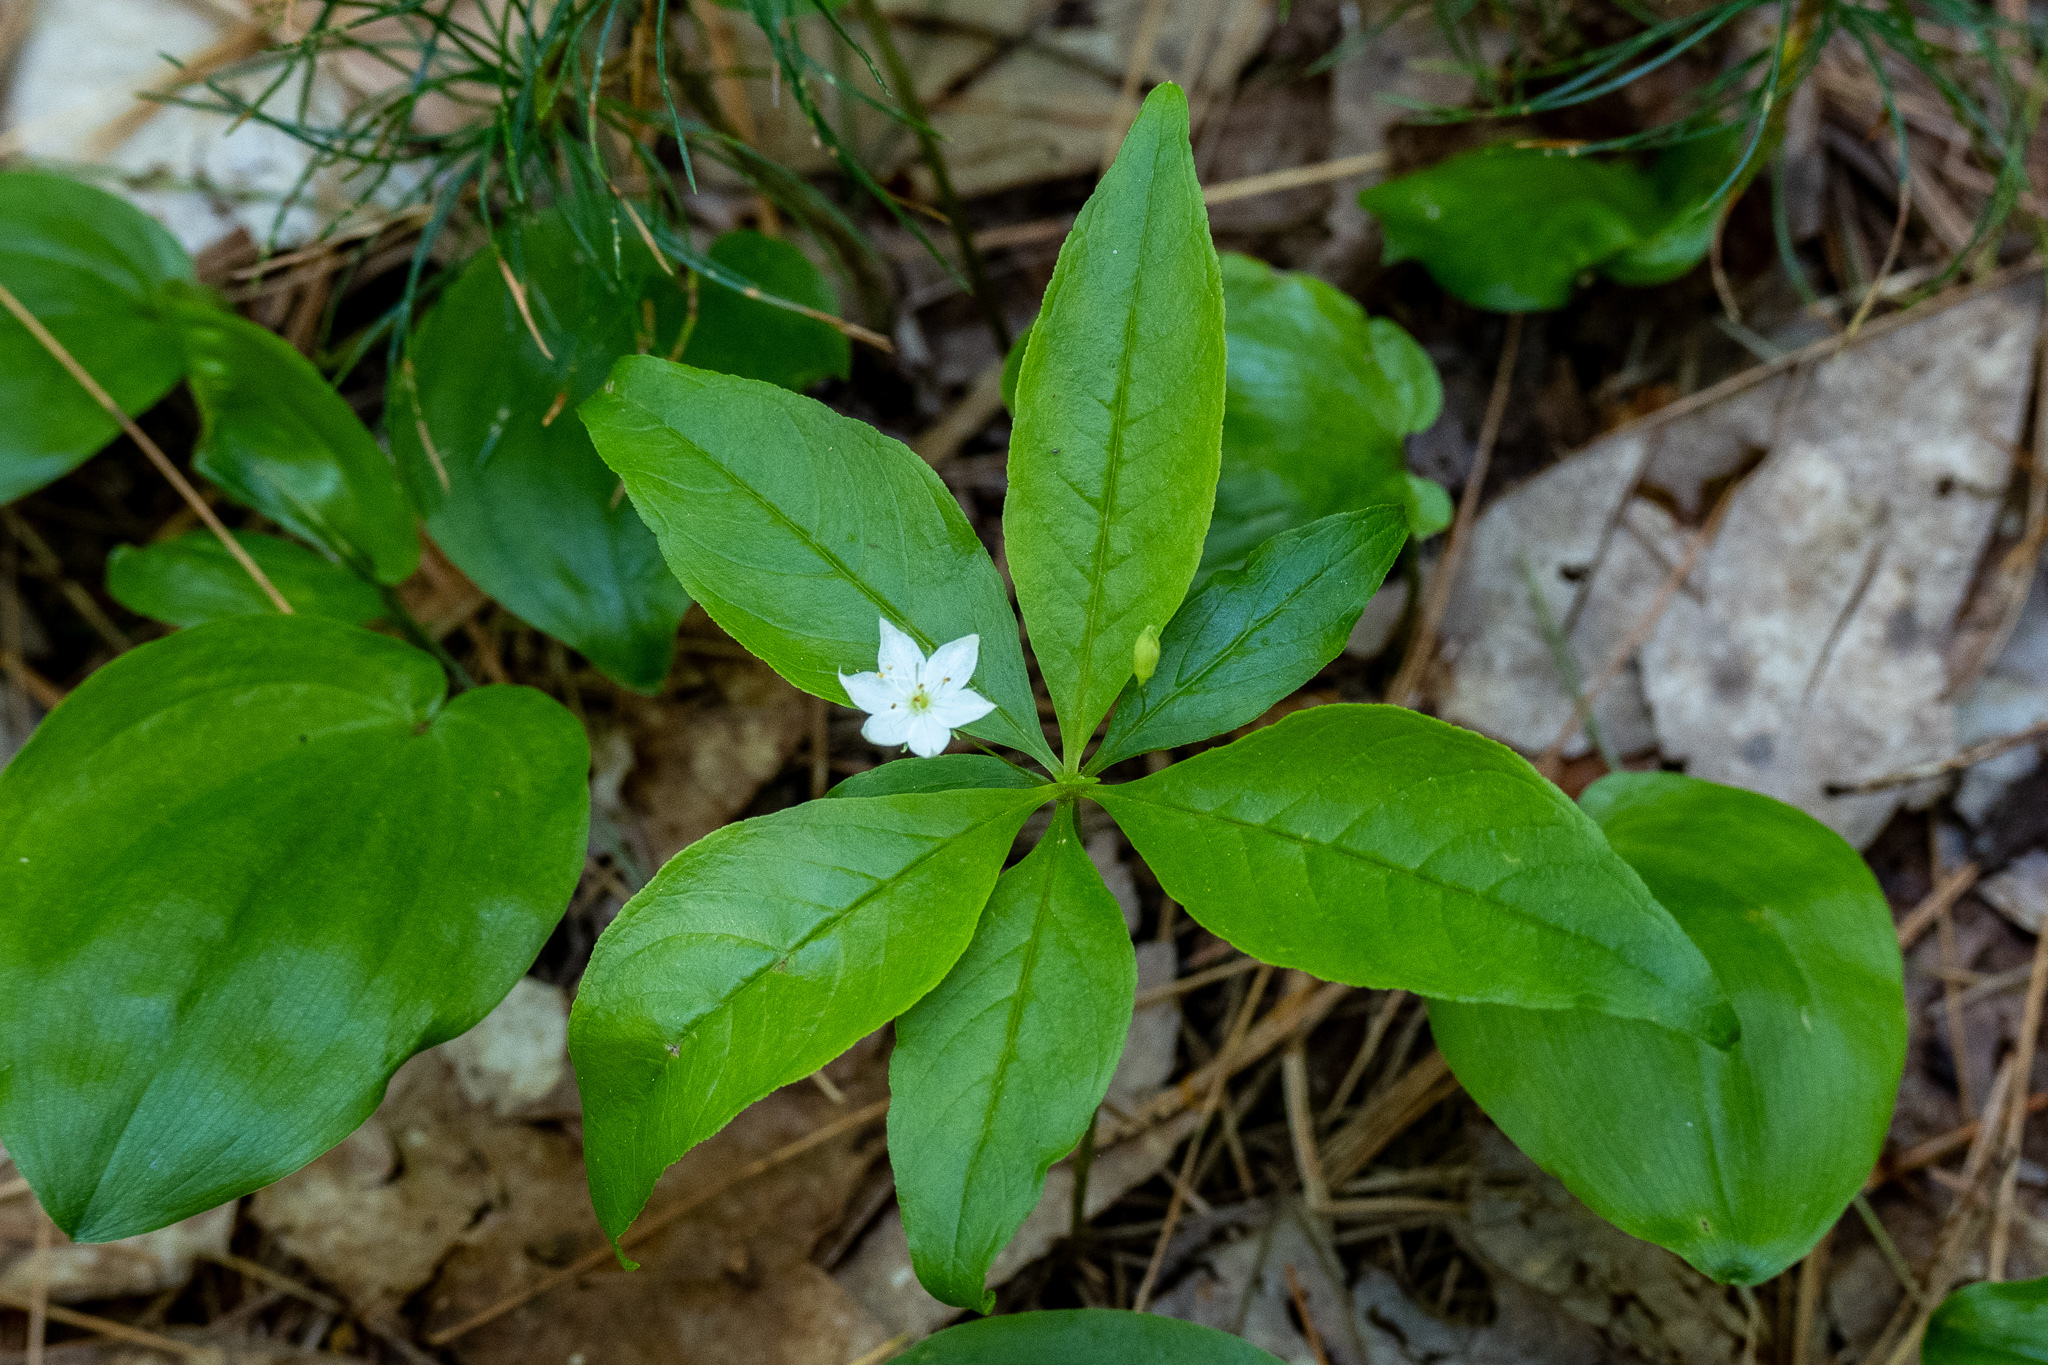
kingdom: Plantae
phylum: Tracheophyta
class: Magnoliopsida
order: Ericales
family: Primulaceae
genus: Lysimachia
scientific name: Lysimachia borealis
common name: American starflower
